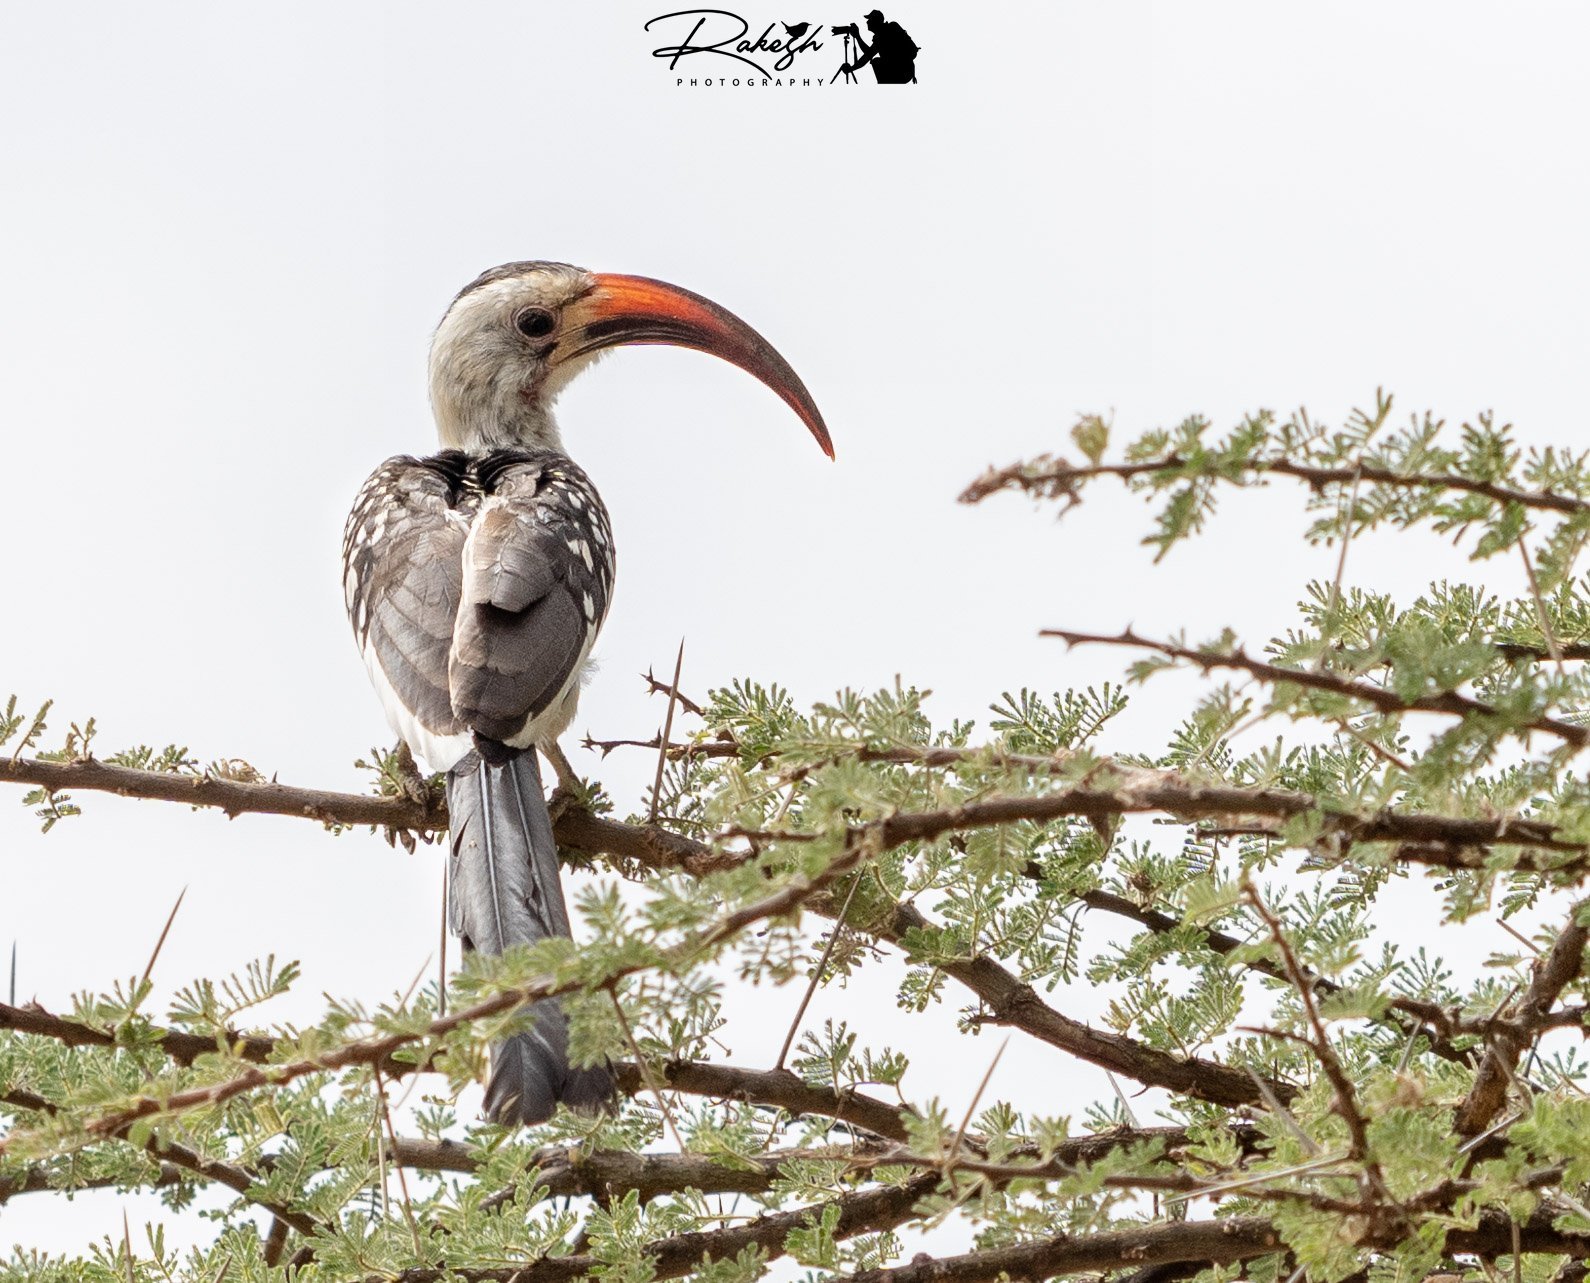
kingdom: Animalia
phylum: Chordata
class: Aves
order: Bucerotiformes
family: Bucerotidae
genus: Tockus
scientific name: Tockus erythrorhynchus
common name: Northern red-billed hornbill
